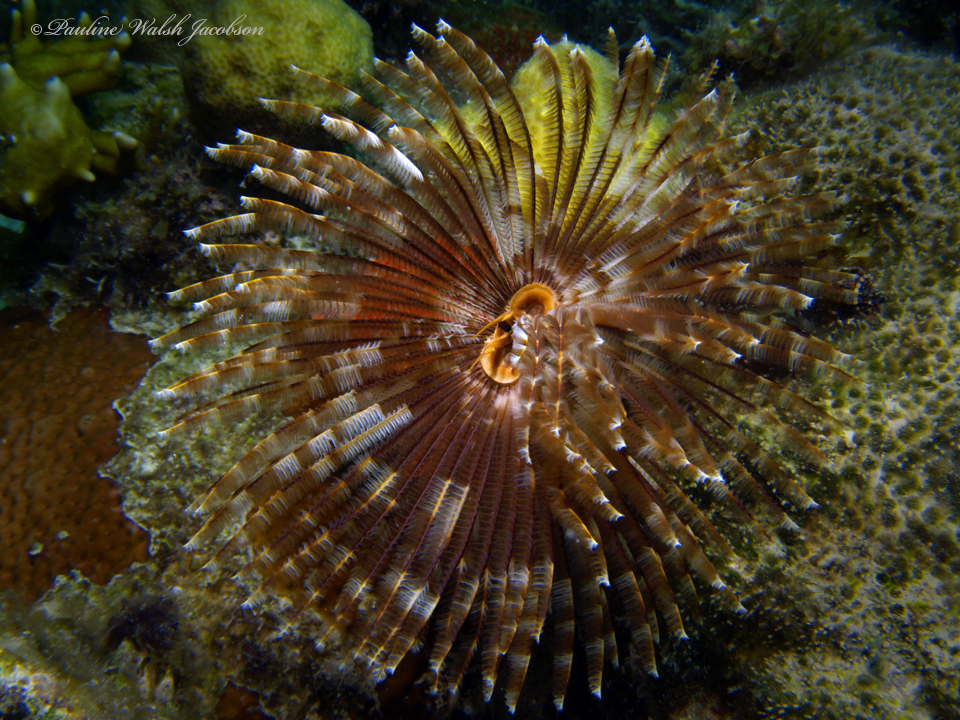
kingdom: Animalia
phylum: Annelida
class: Polychaeta
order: Sabellida
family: Sabellidae
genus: Sabellastarte
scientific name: Sabellastarte magnifica
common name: Giant feather-duster worm
